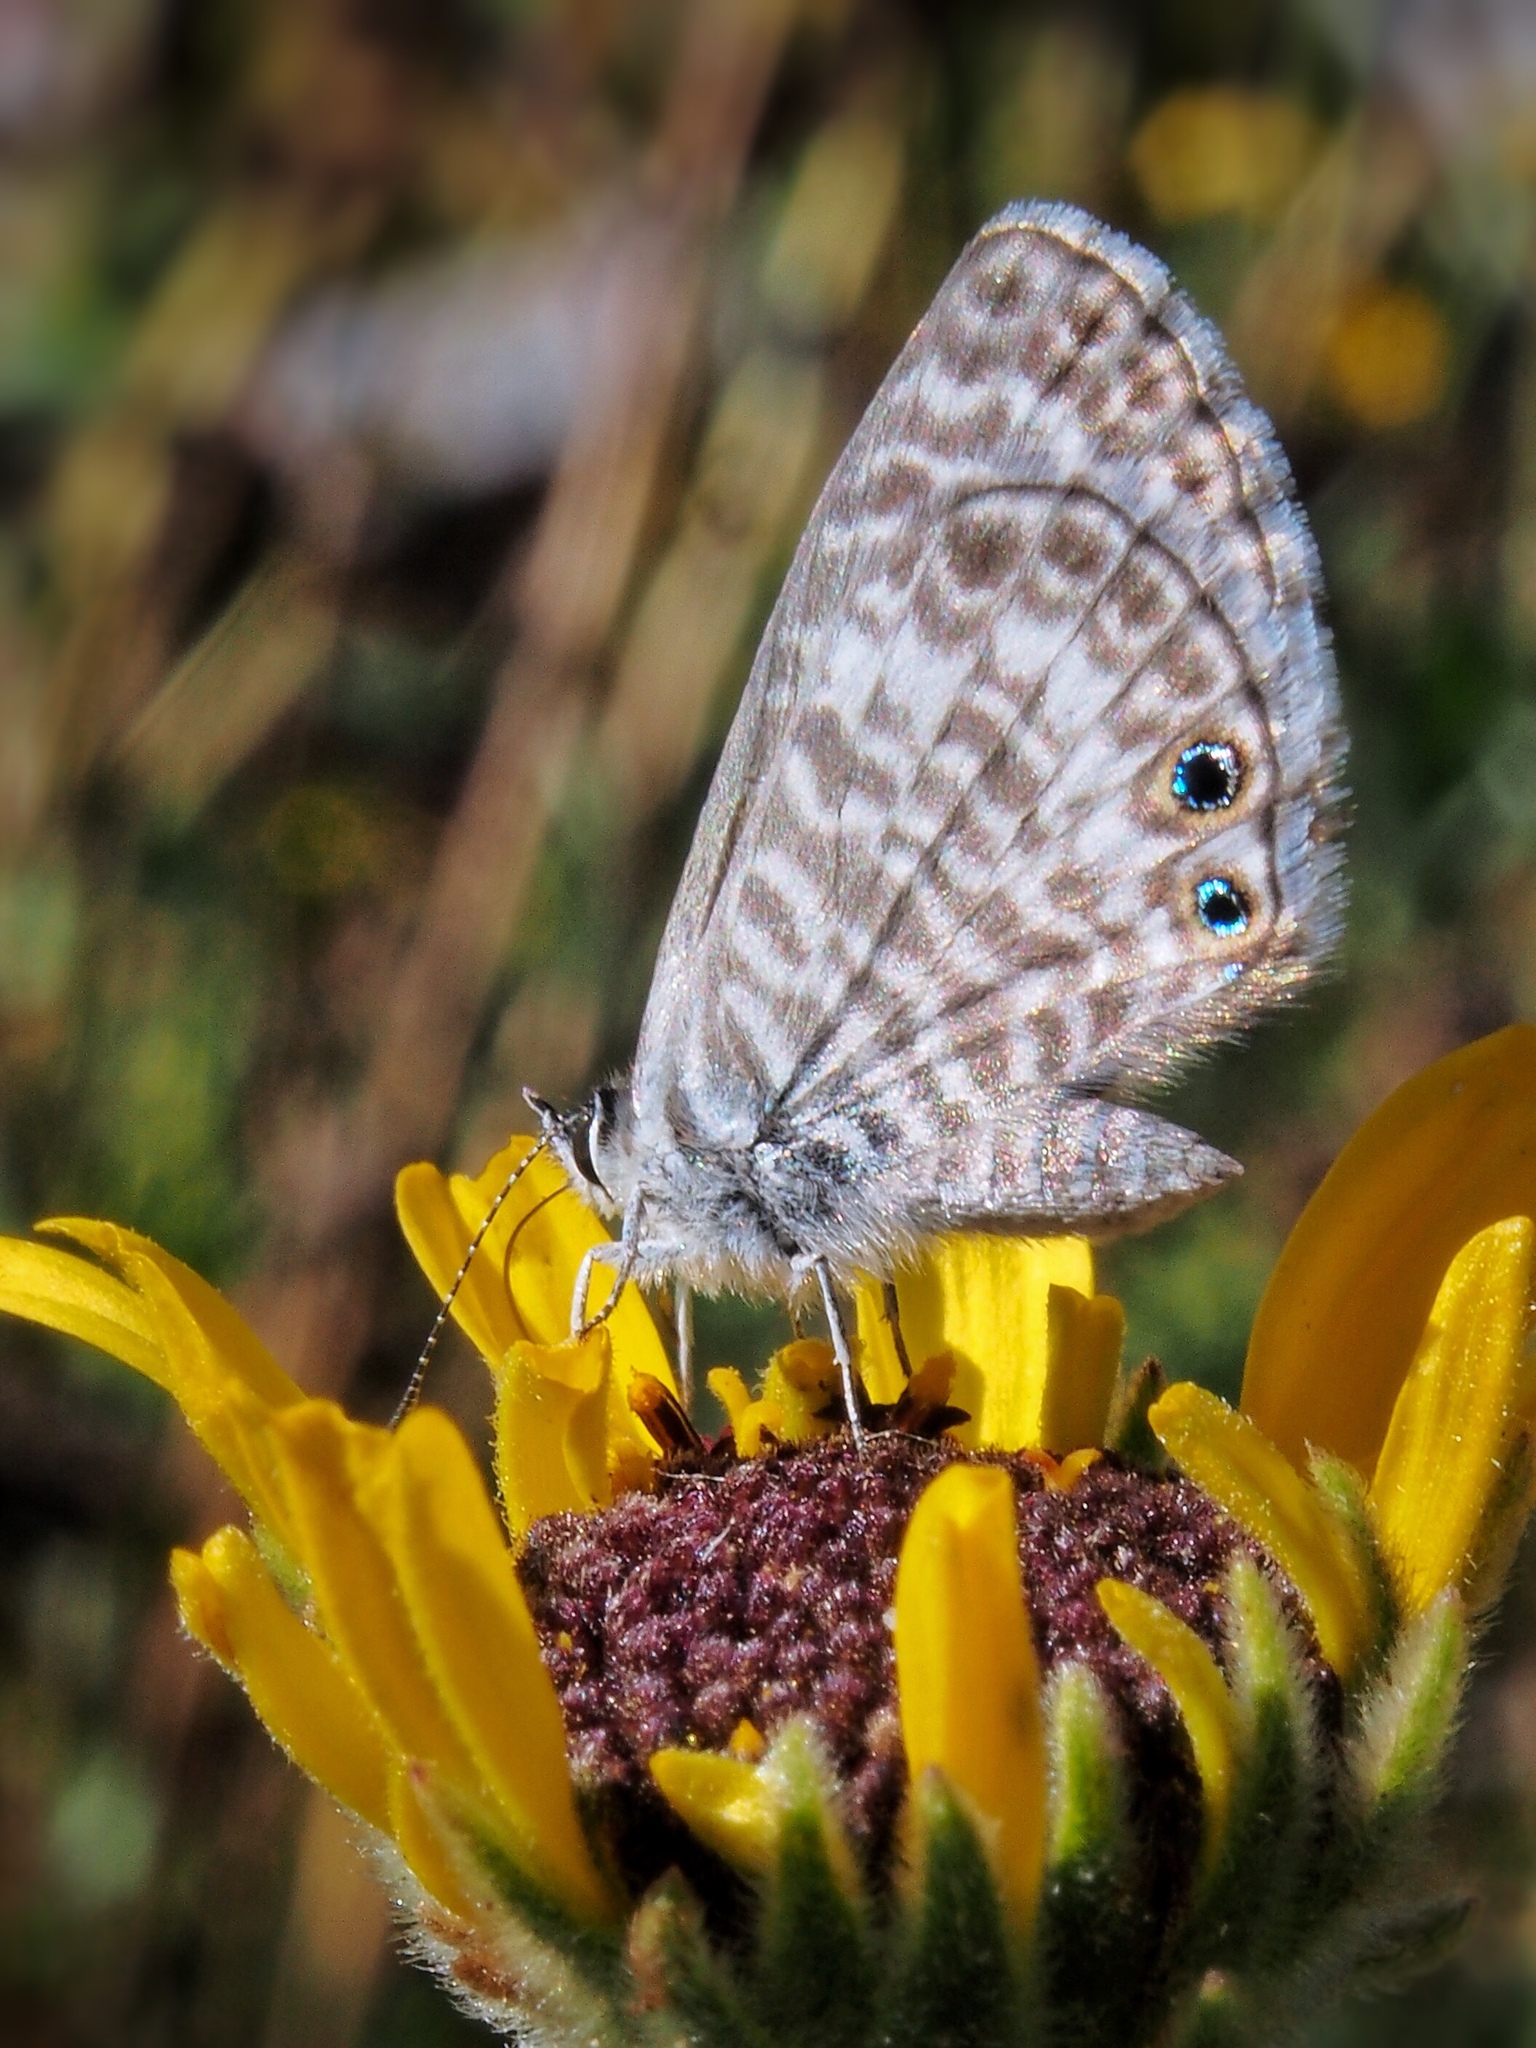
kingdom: Animalia
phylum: Arthropoda
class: Insecta
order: Lepidoptera
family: Lycaenidae
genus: Leptotes
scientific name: Leptotes marina
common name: Marine blue
